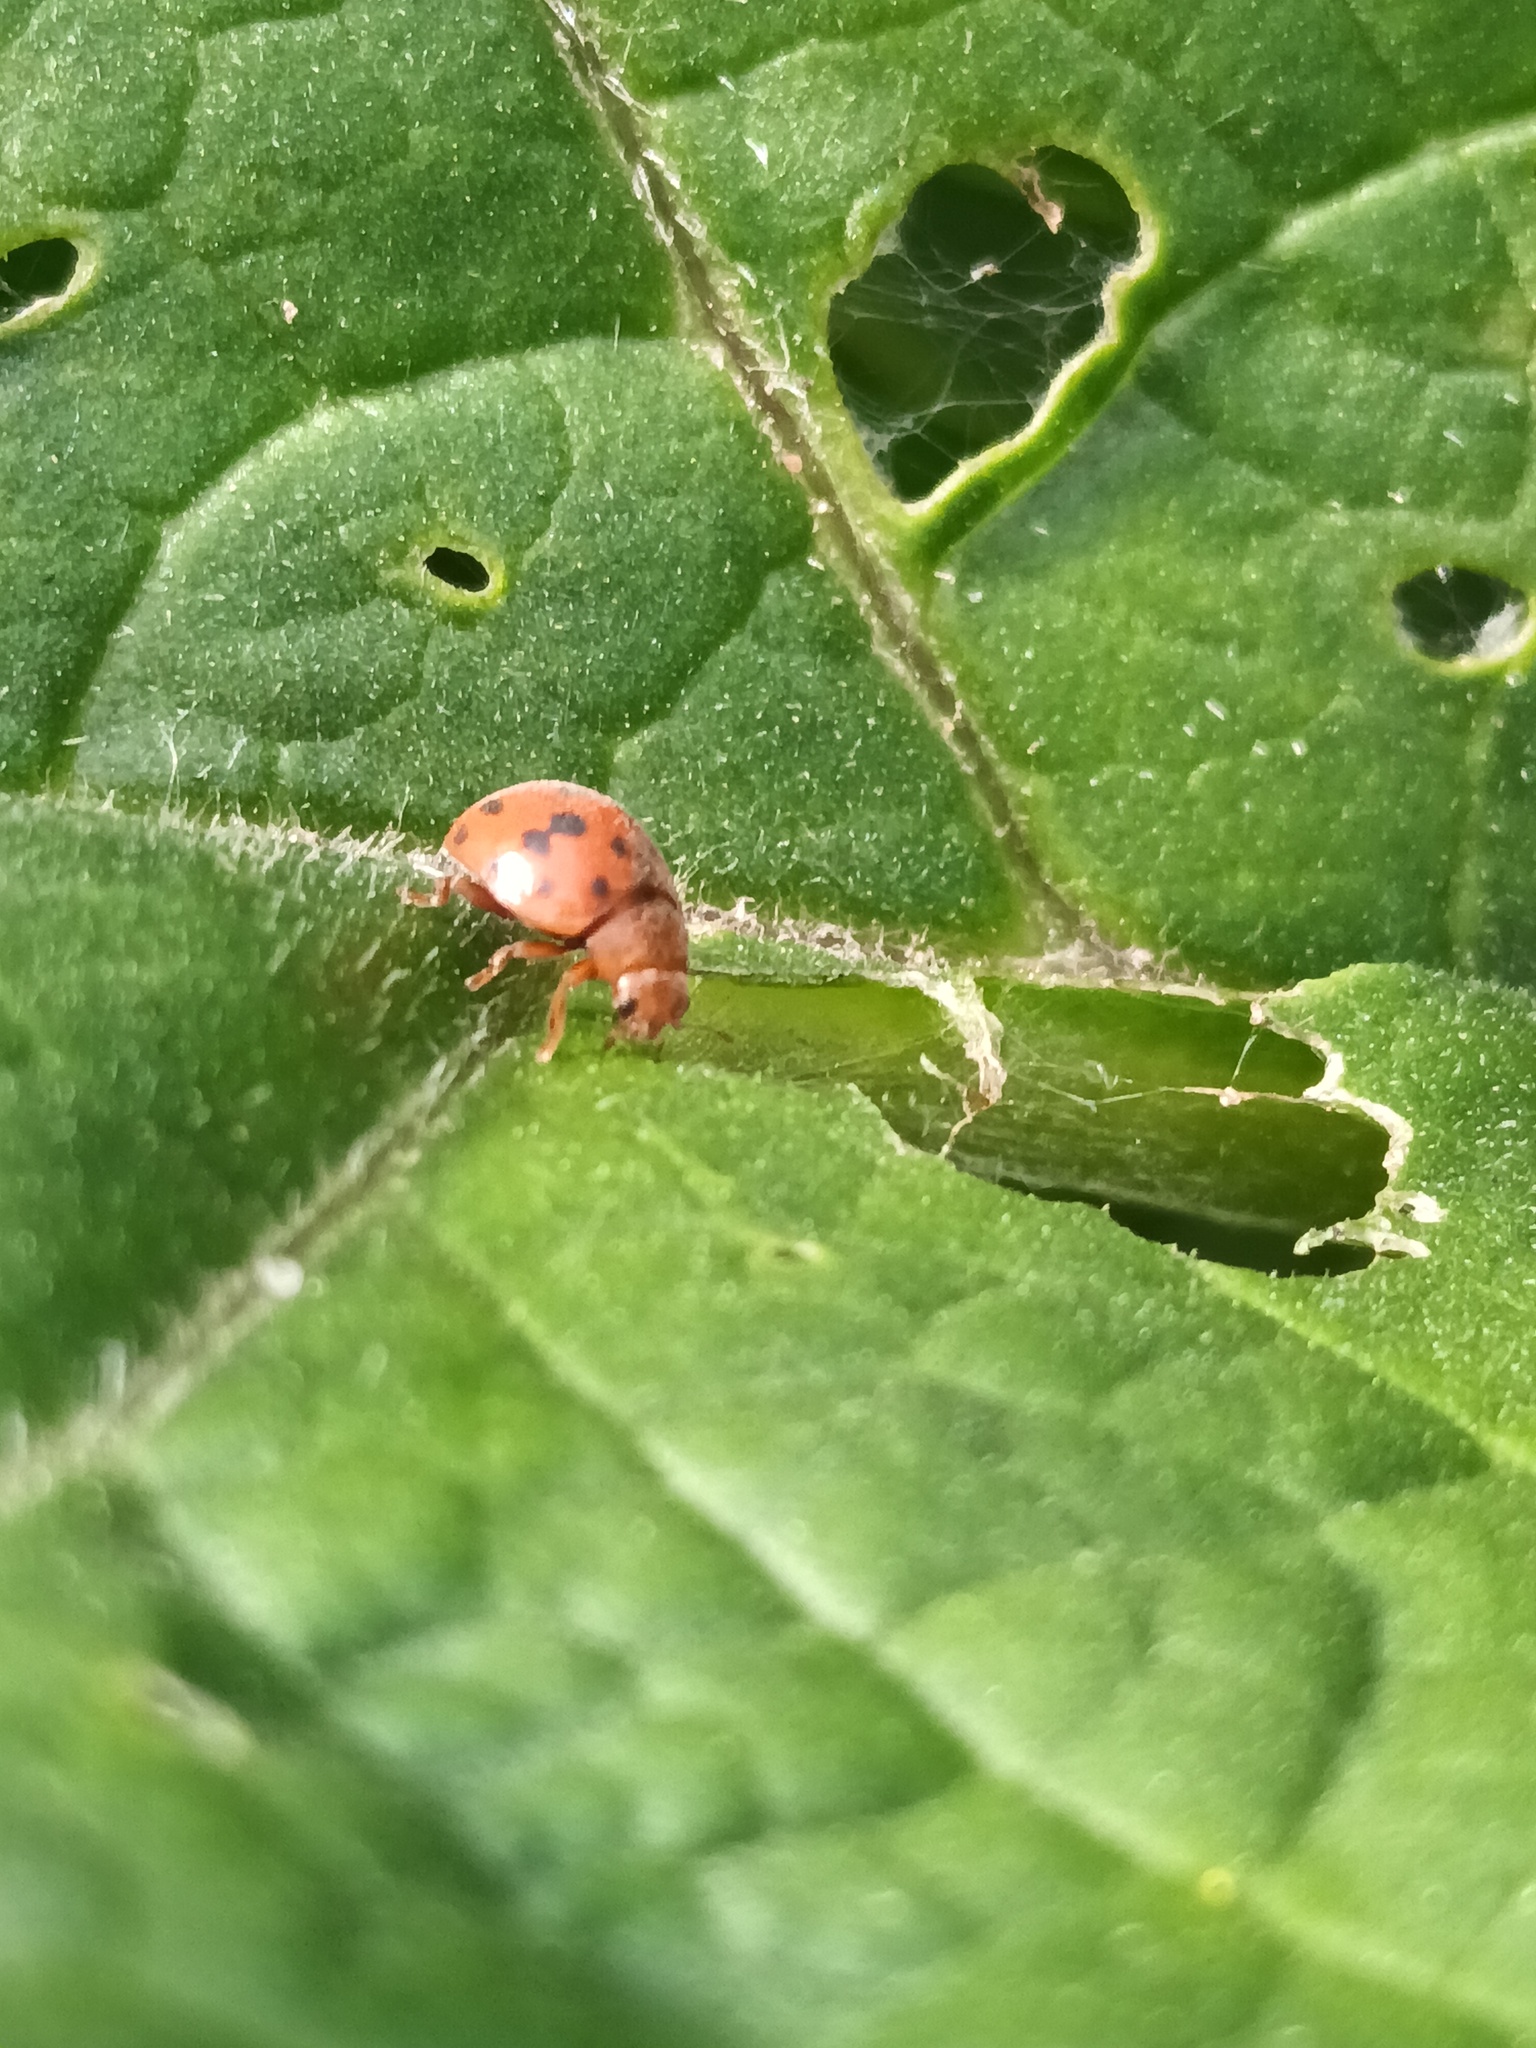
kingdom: Animalia
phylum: Arthropoda
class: Insecta
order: Coleoptera
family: Coccinellidae
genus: Subcoccinella
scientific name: Subcoccinella vigintiquatuorpunctata
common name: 24-spot ladybird
